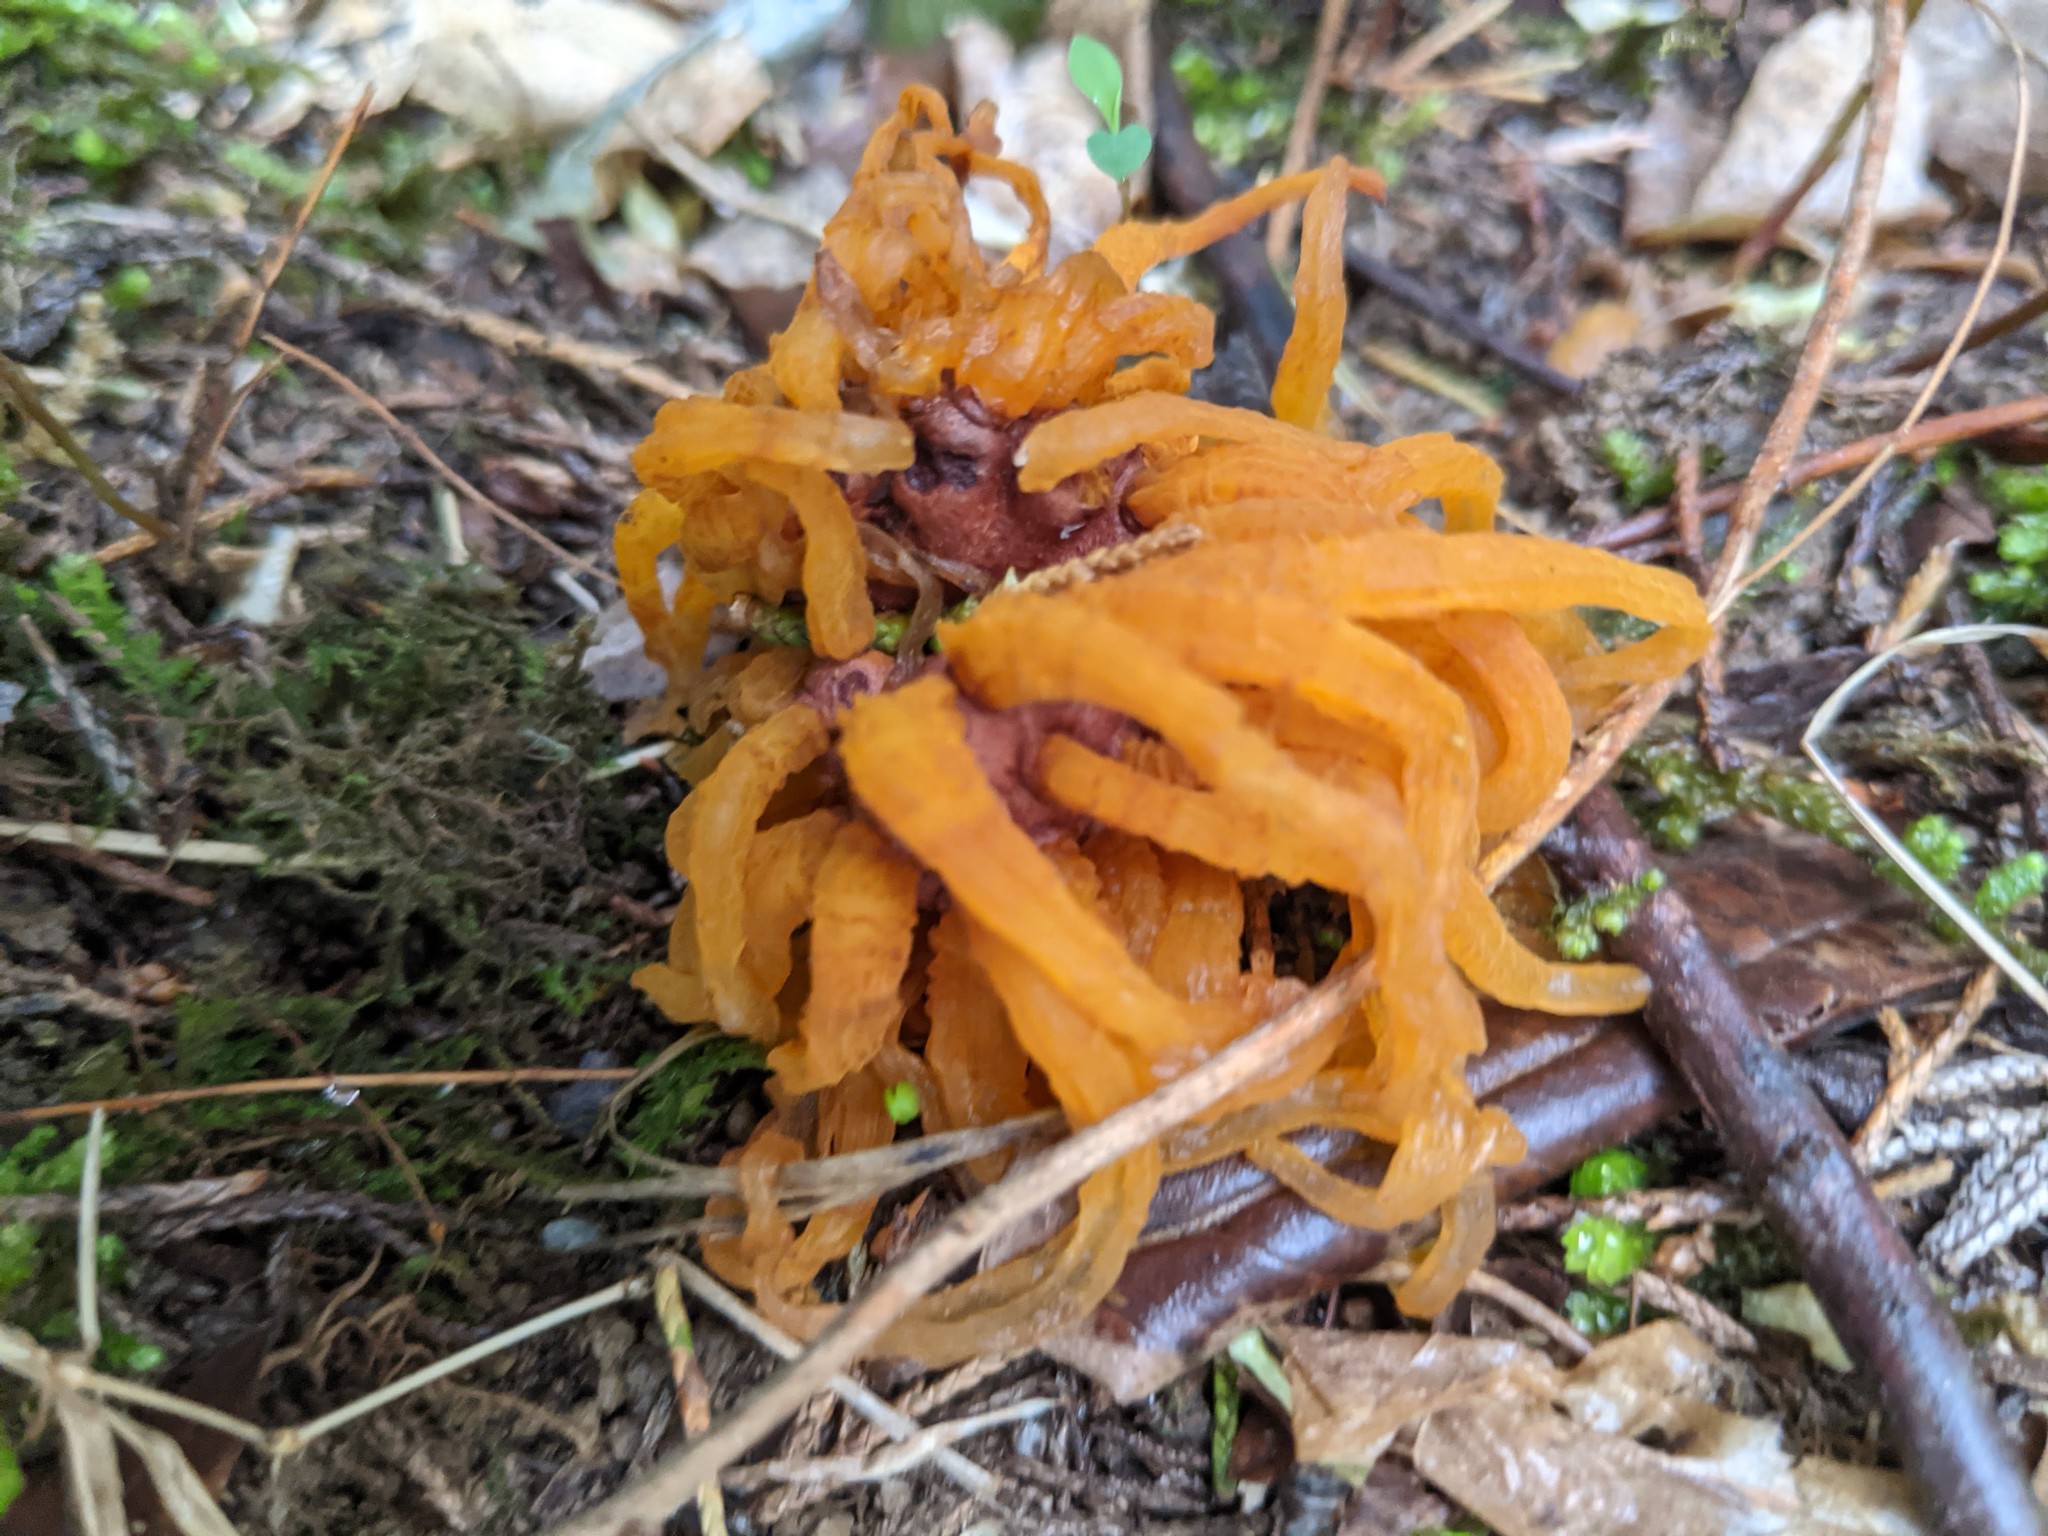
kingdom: Fungi
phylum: Basidiomycota
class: Pucciniomycetes
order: Pucciniales
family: Gymnosporangiaceae
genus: Gymnosporangium
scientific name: Gymnosporangium juniperi-virginianae
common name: Juniper-apple rust
